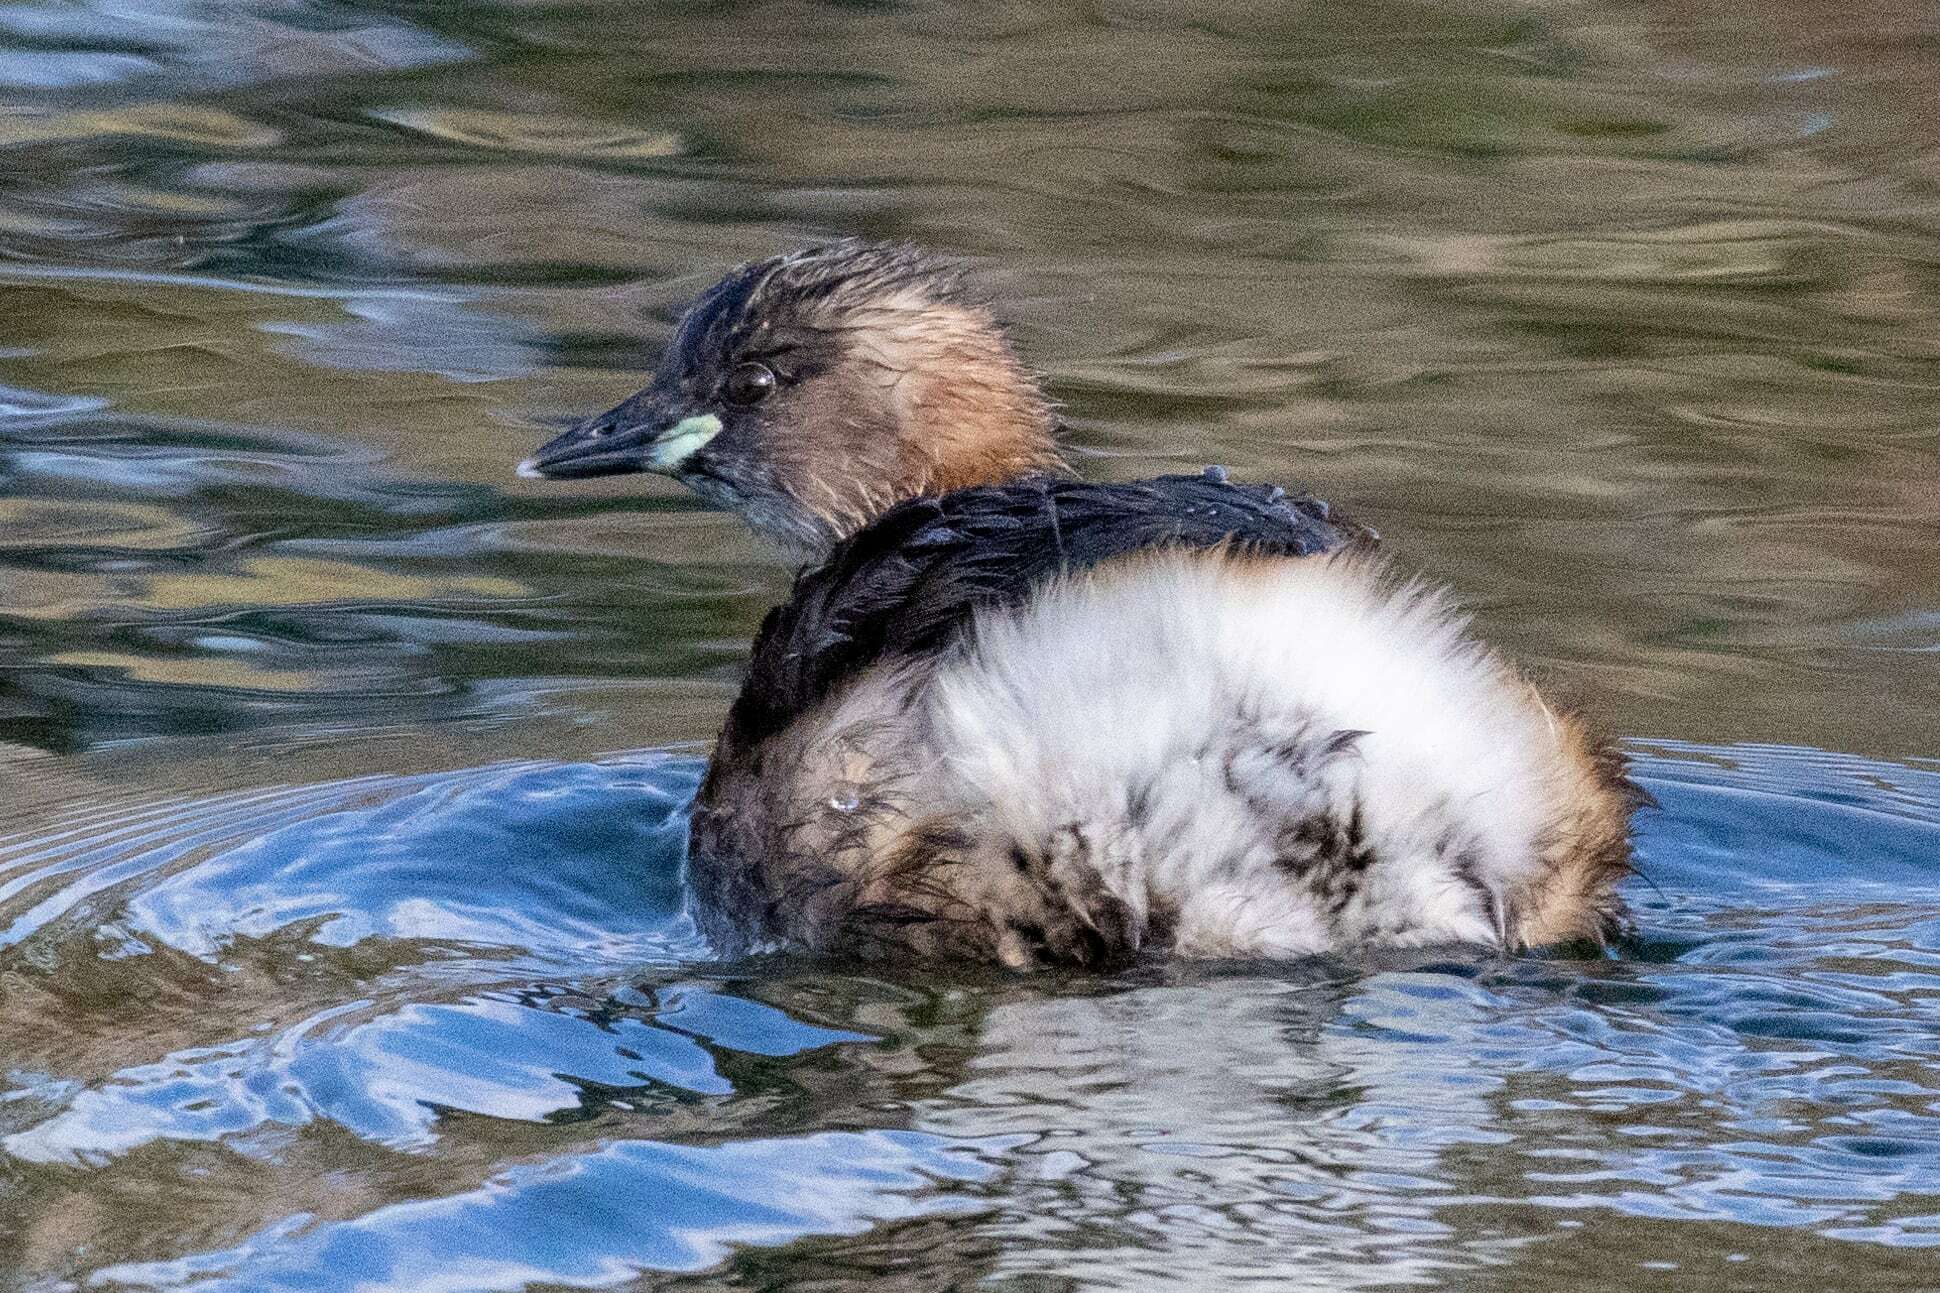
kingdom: Animalia
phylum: Chordata
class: Aves
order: Podicipediformes
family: Podicipedidae
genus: Tachybaptus
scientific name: Tachybaptus ruficollis
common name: Little grebe
